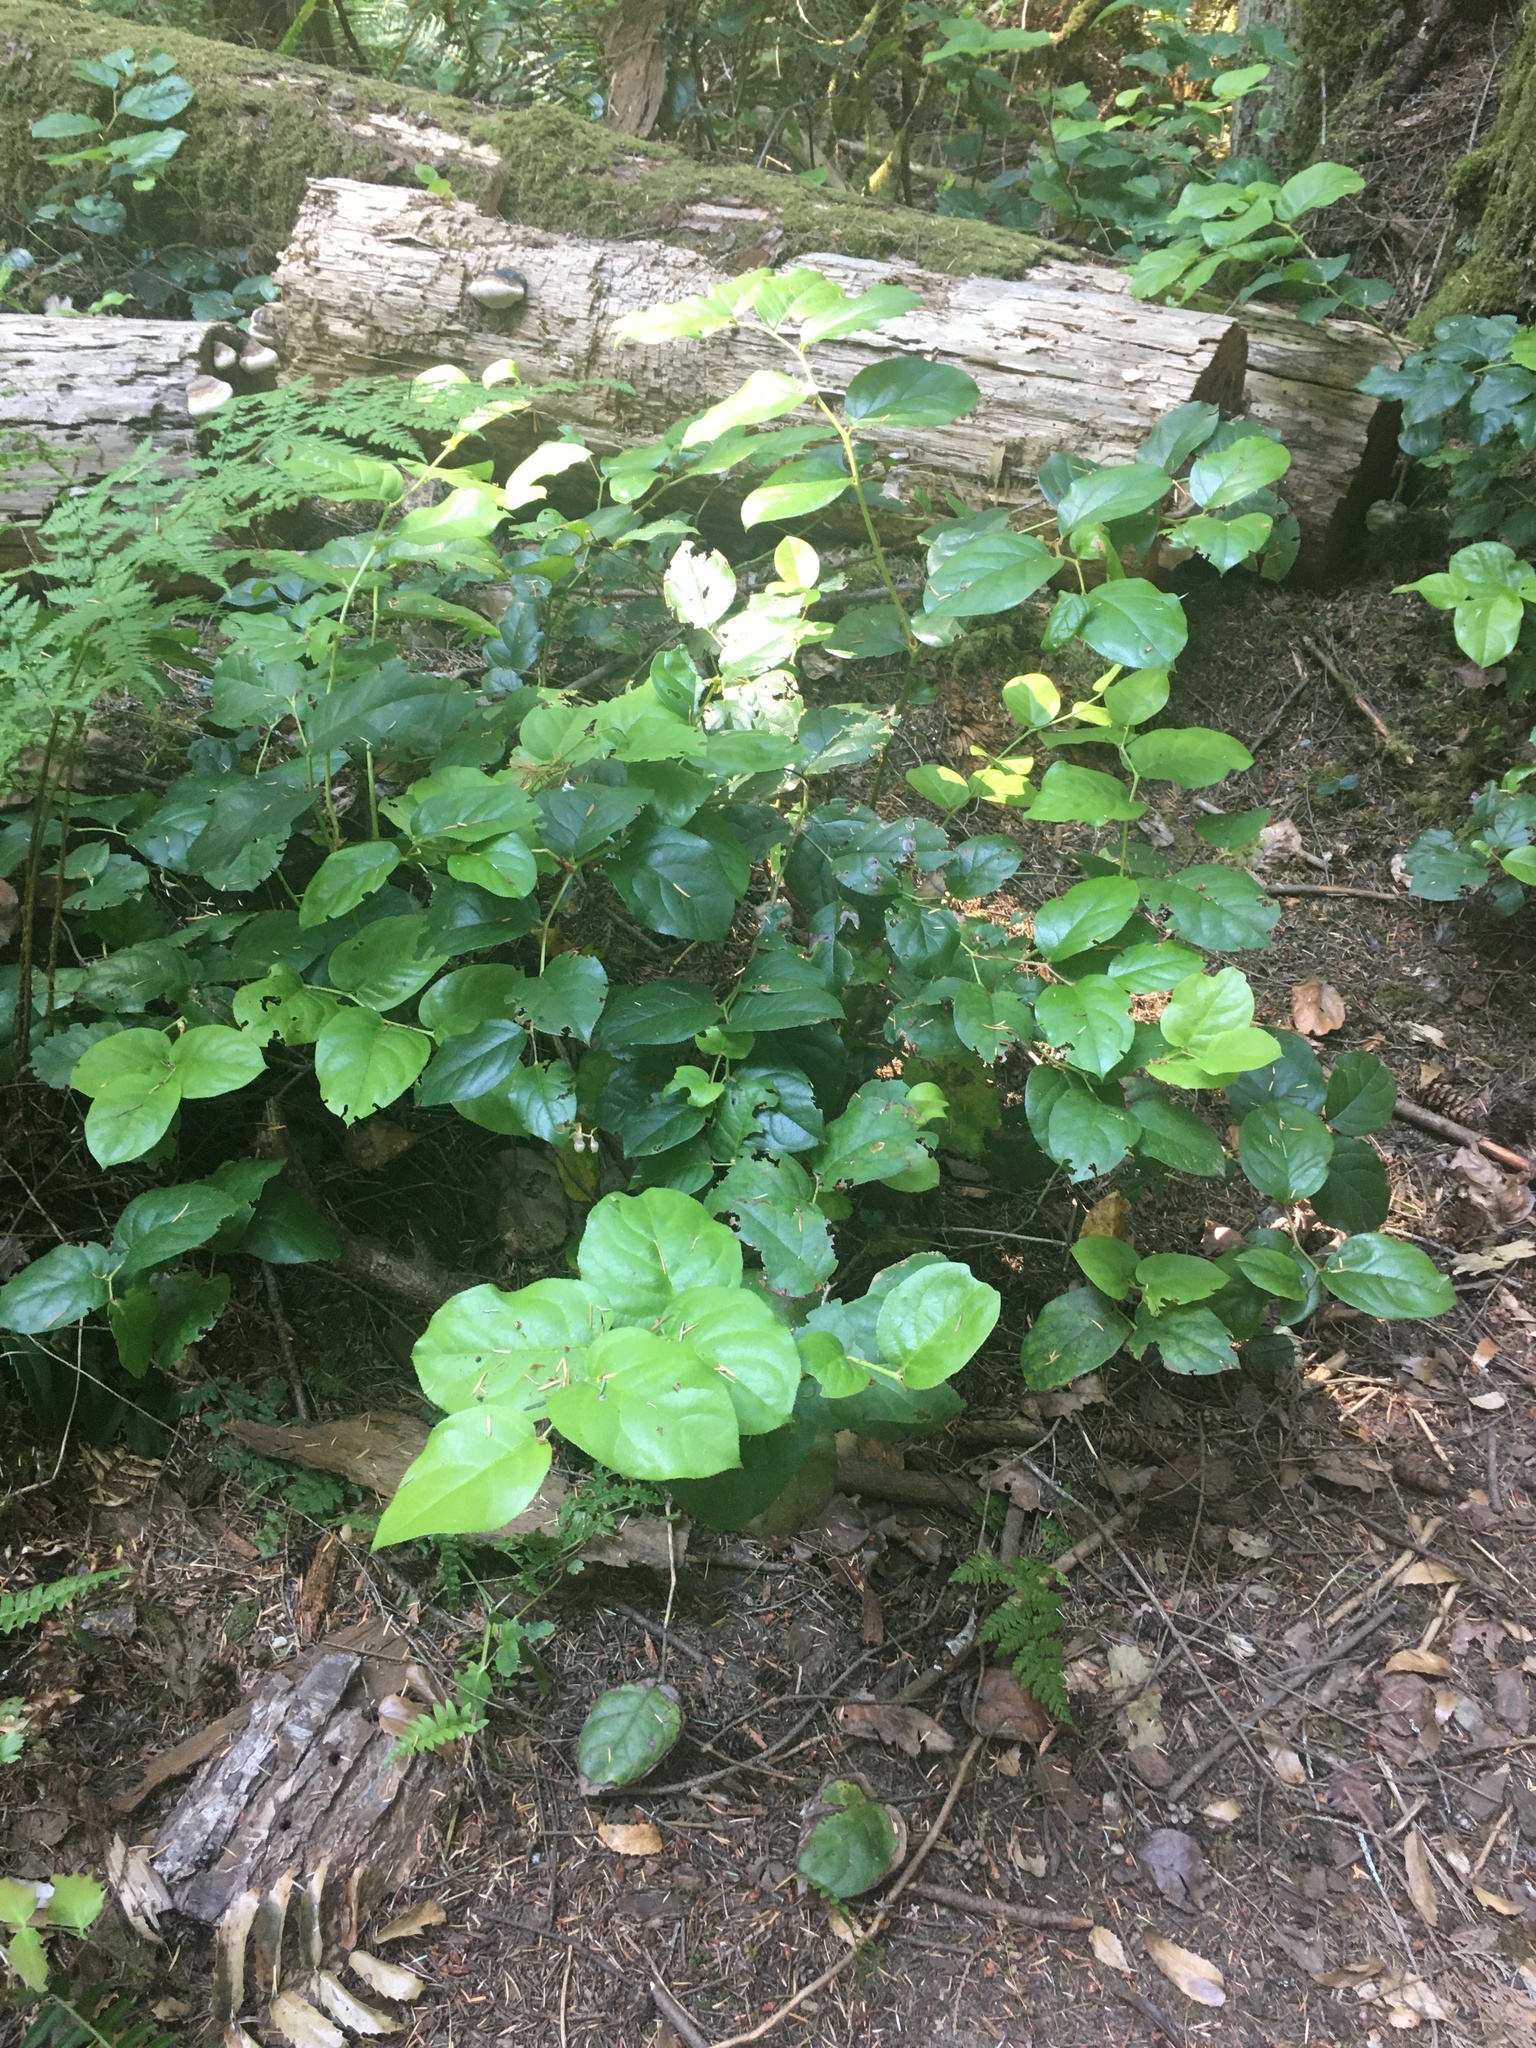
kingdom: Plantae
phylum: Tracheophyta
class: Magnoliopsida
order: Ericales
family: Ericaceae
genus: Gaultheria
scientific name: Gaultheria shallon
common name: Shallon
